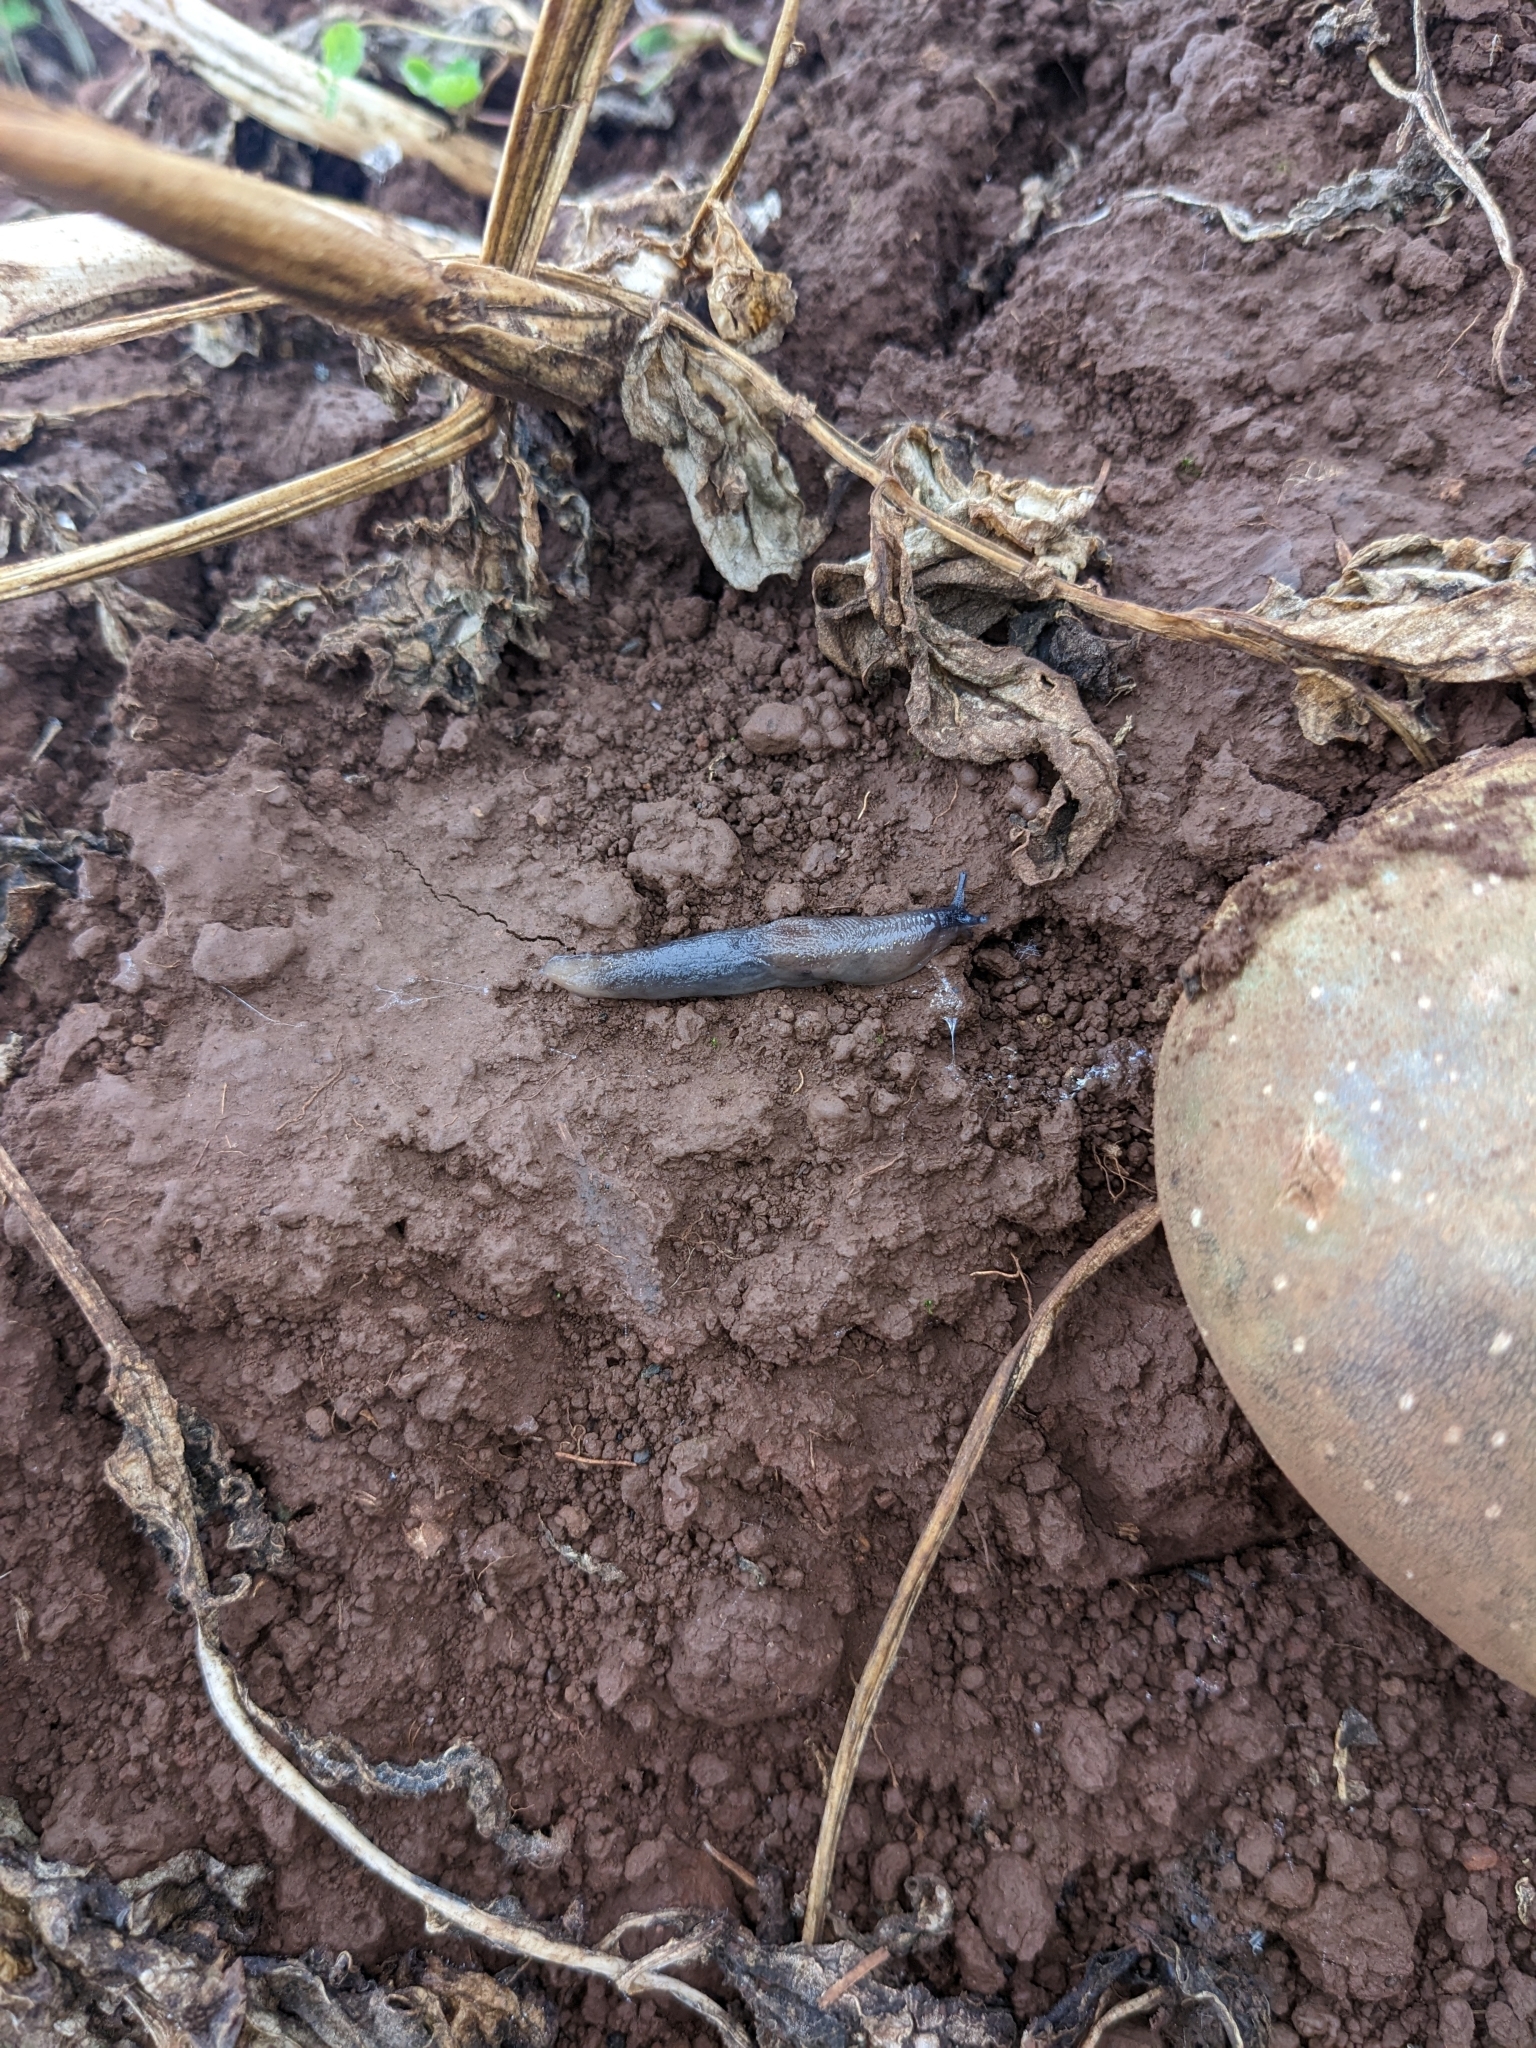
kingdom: Animalia
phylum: Mollusca
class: Gastropoda
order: Stylommatophora
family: Agriolimacidae
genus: Deroceras
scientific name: Deroceras invadens
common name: Caruana's slug
